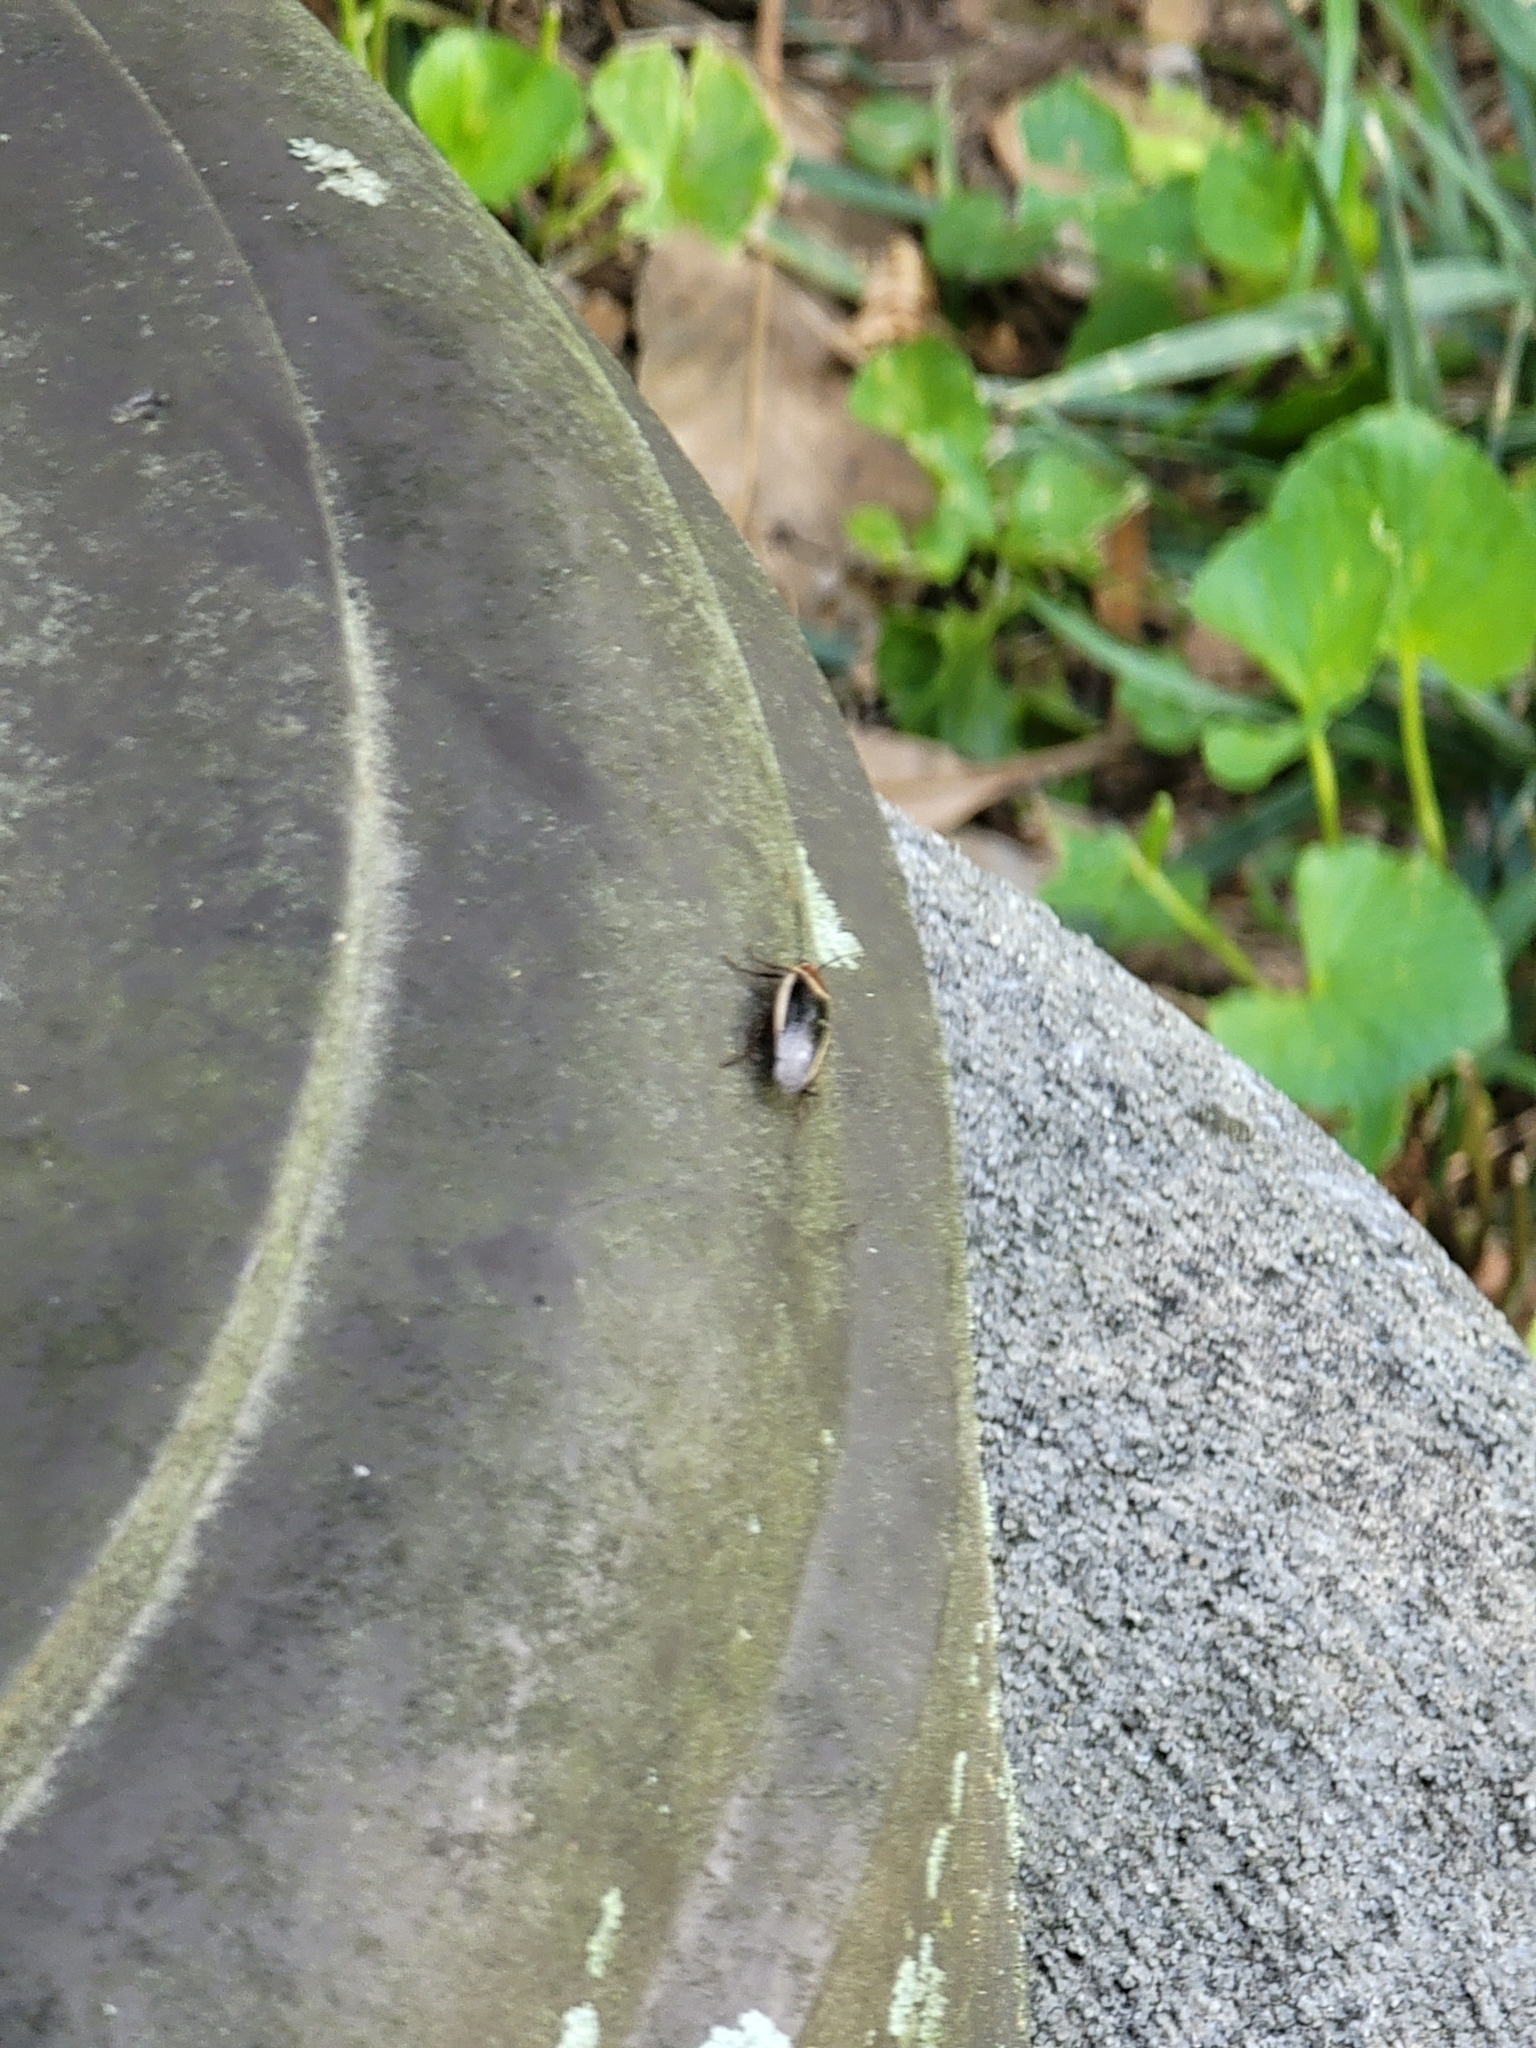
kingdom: Animalia
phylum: Arthropoda
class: Insecta
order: Blattodea
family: Ectobiidae
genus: Pseudomops
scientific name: Pseudomops septentrionalis
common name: Pale-bordered field cockroach
